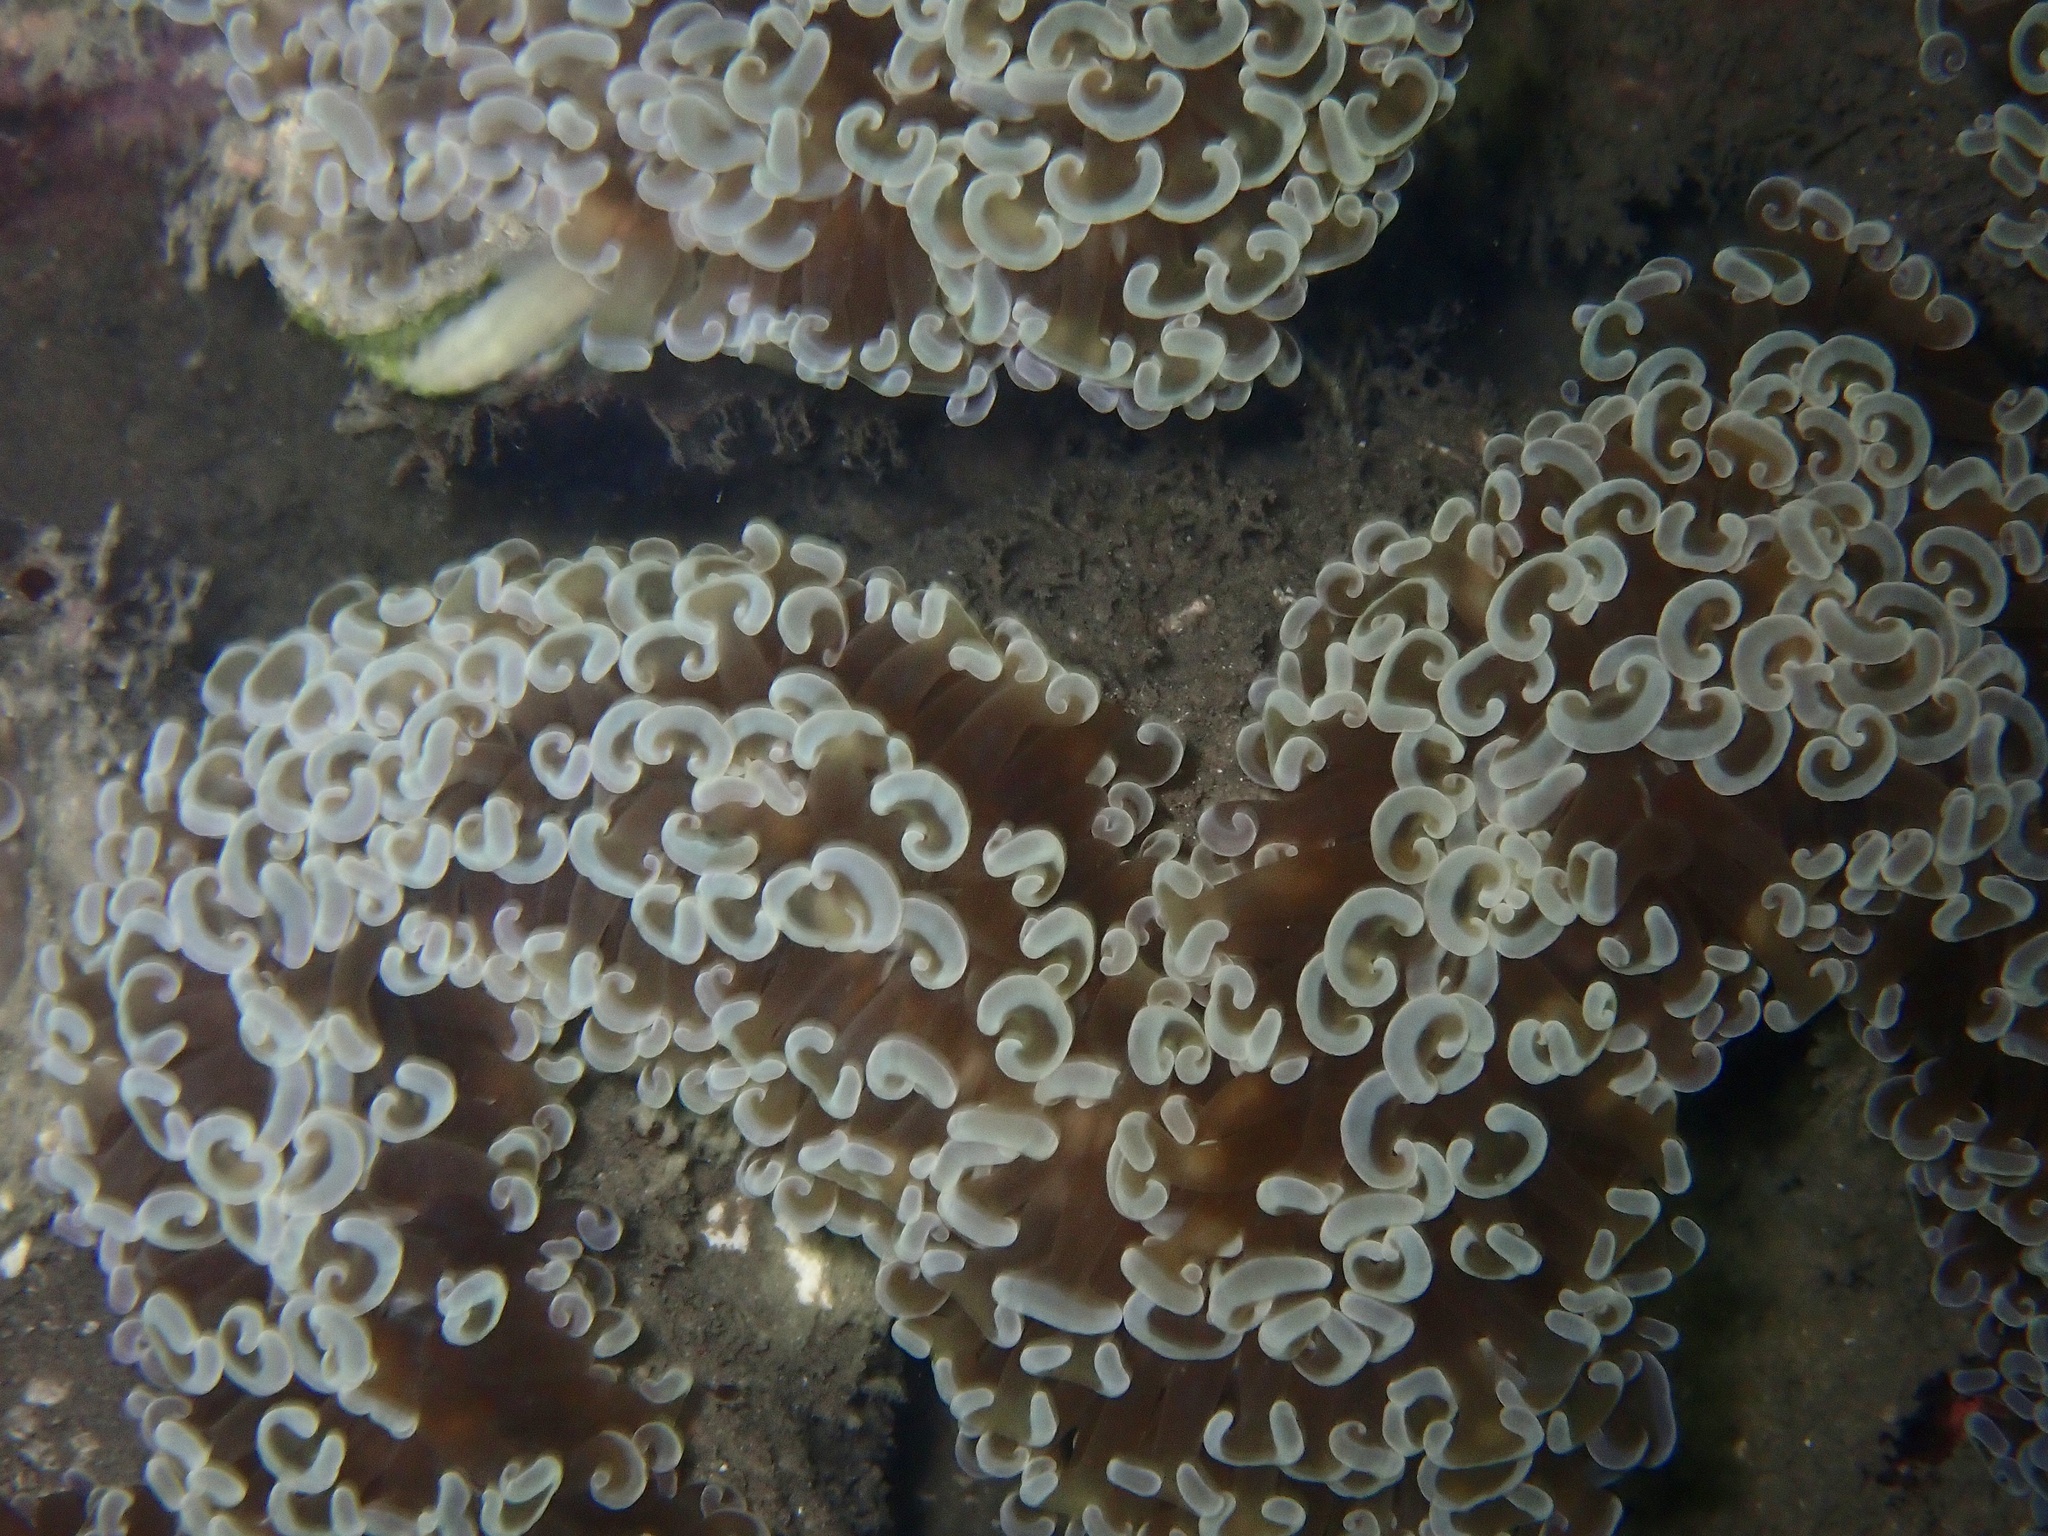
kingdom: Animalia
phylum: Cnidaria
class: Anthozoa
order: Scleractinia
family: Euphylliidae
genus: Fimbriaphyllia
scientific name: Fimbriaphyllia ancora
